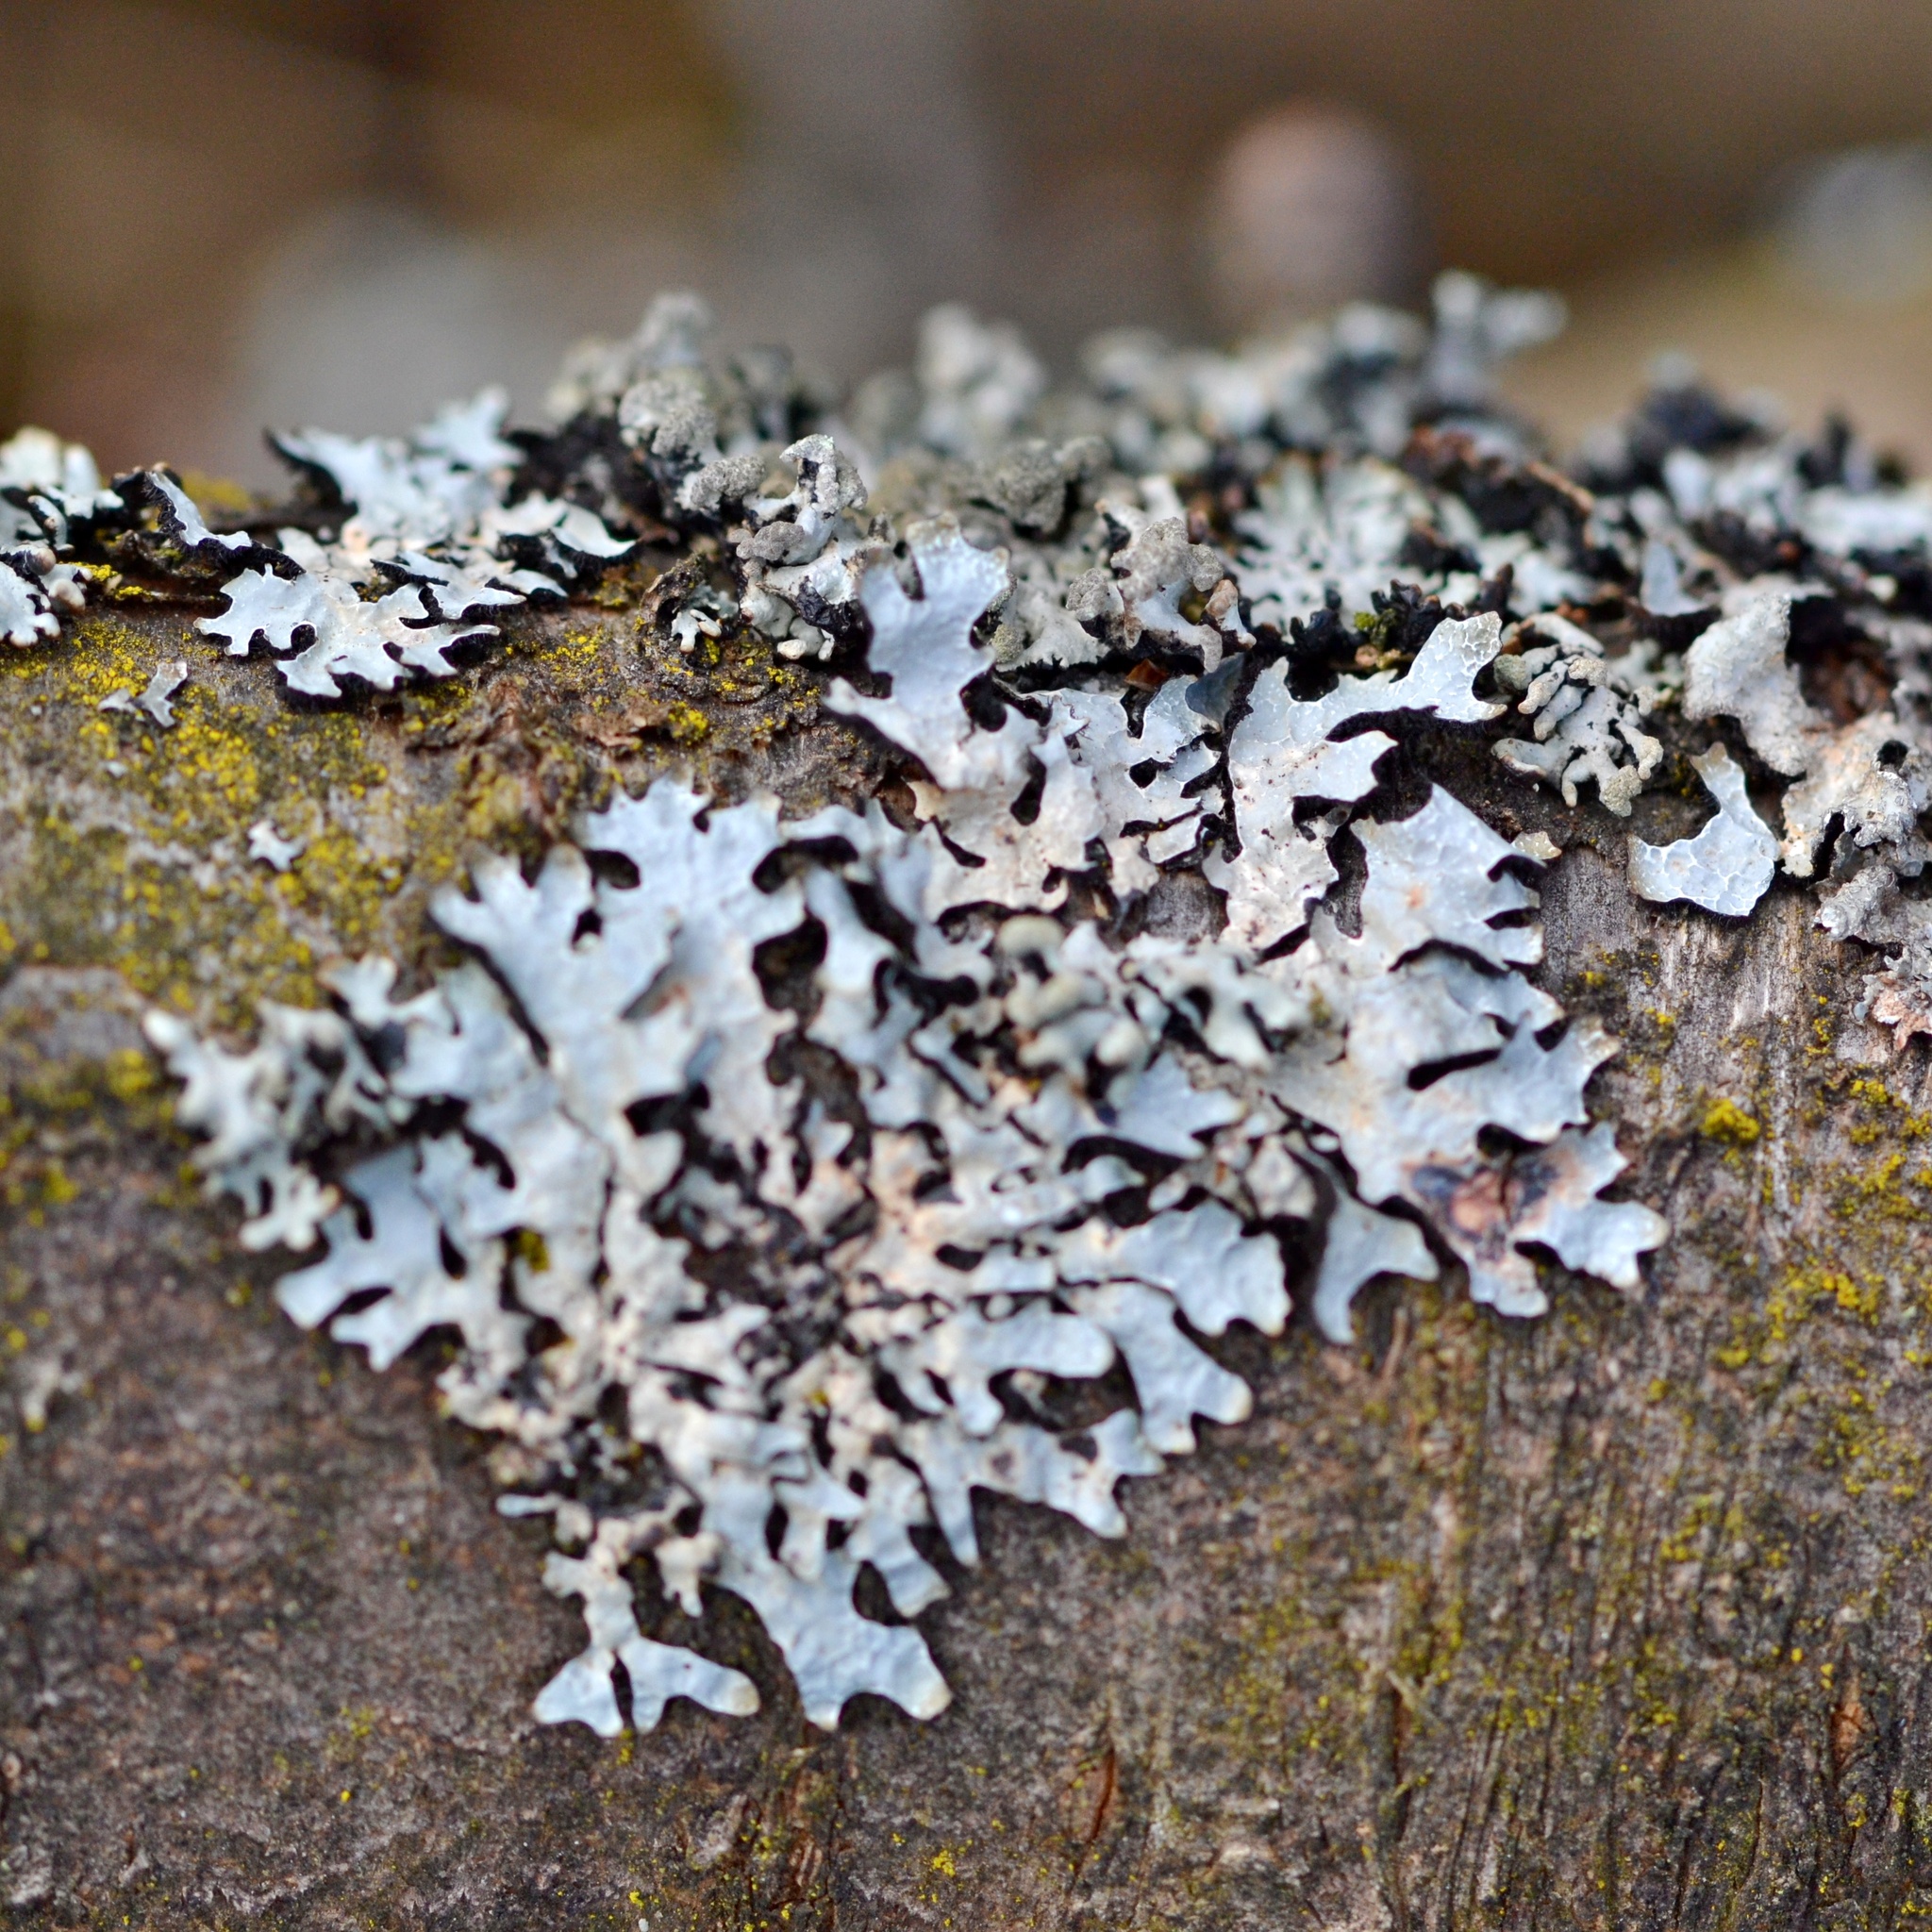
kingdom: Fungi
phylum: Ascomycota
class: Lecanoromycetes
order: Lecanorales
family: Parmeliaceae
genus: Parmelia
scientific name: Parmelia sulcata
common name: Netted shield lichen
